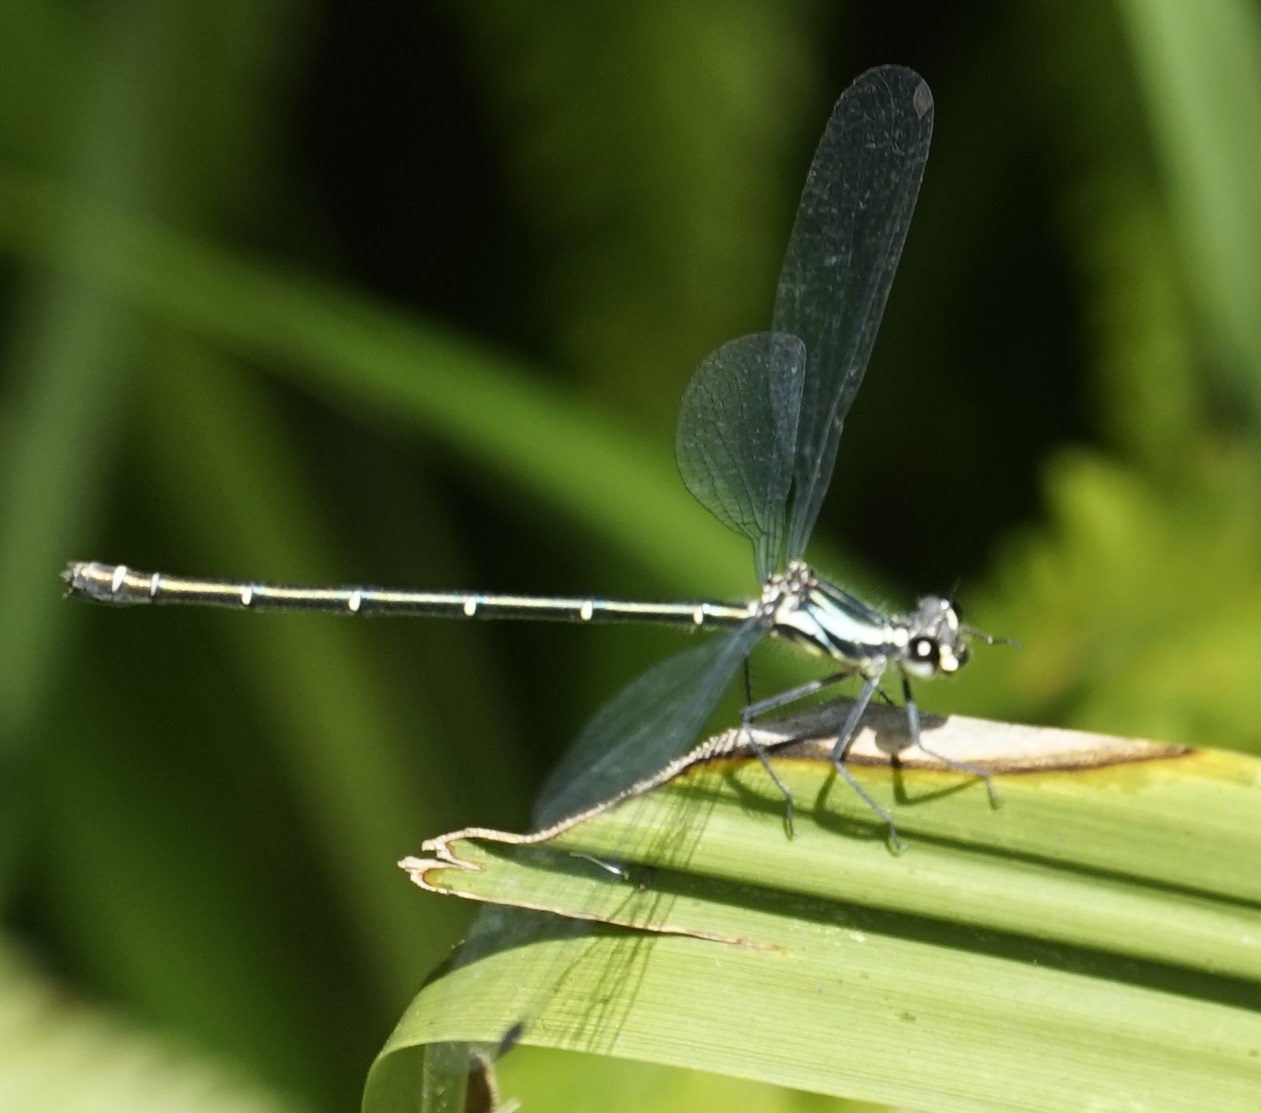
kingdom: Animalia
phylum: Arthropoda
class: Insecta
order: Odonata
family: Argiolestidae
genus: Austroargiolestes
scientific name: Austroargiolestes icteromelas
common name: Common flatwing
